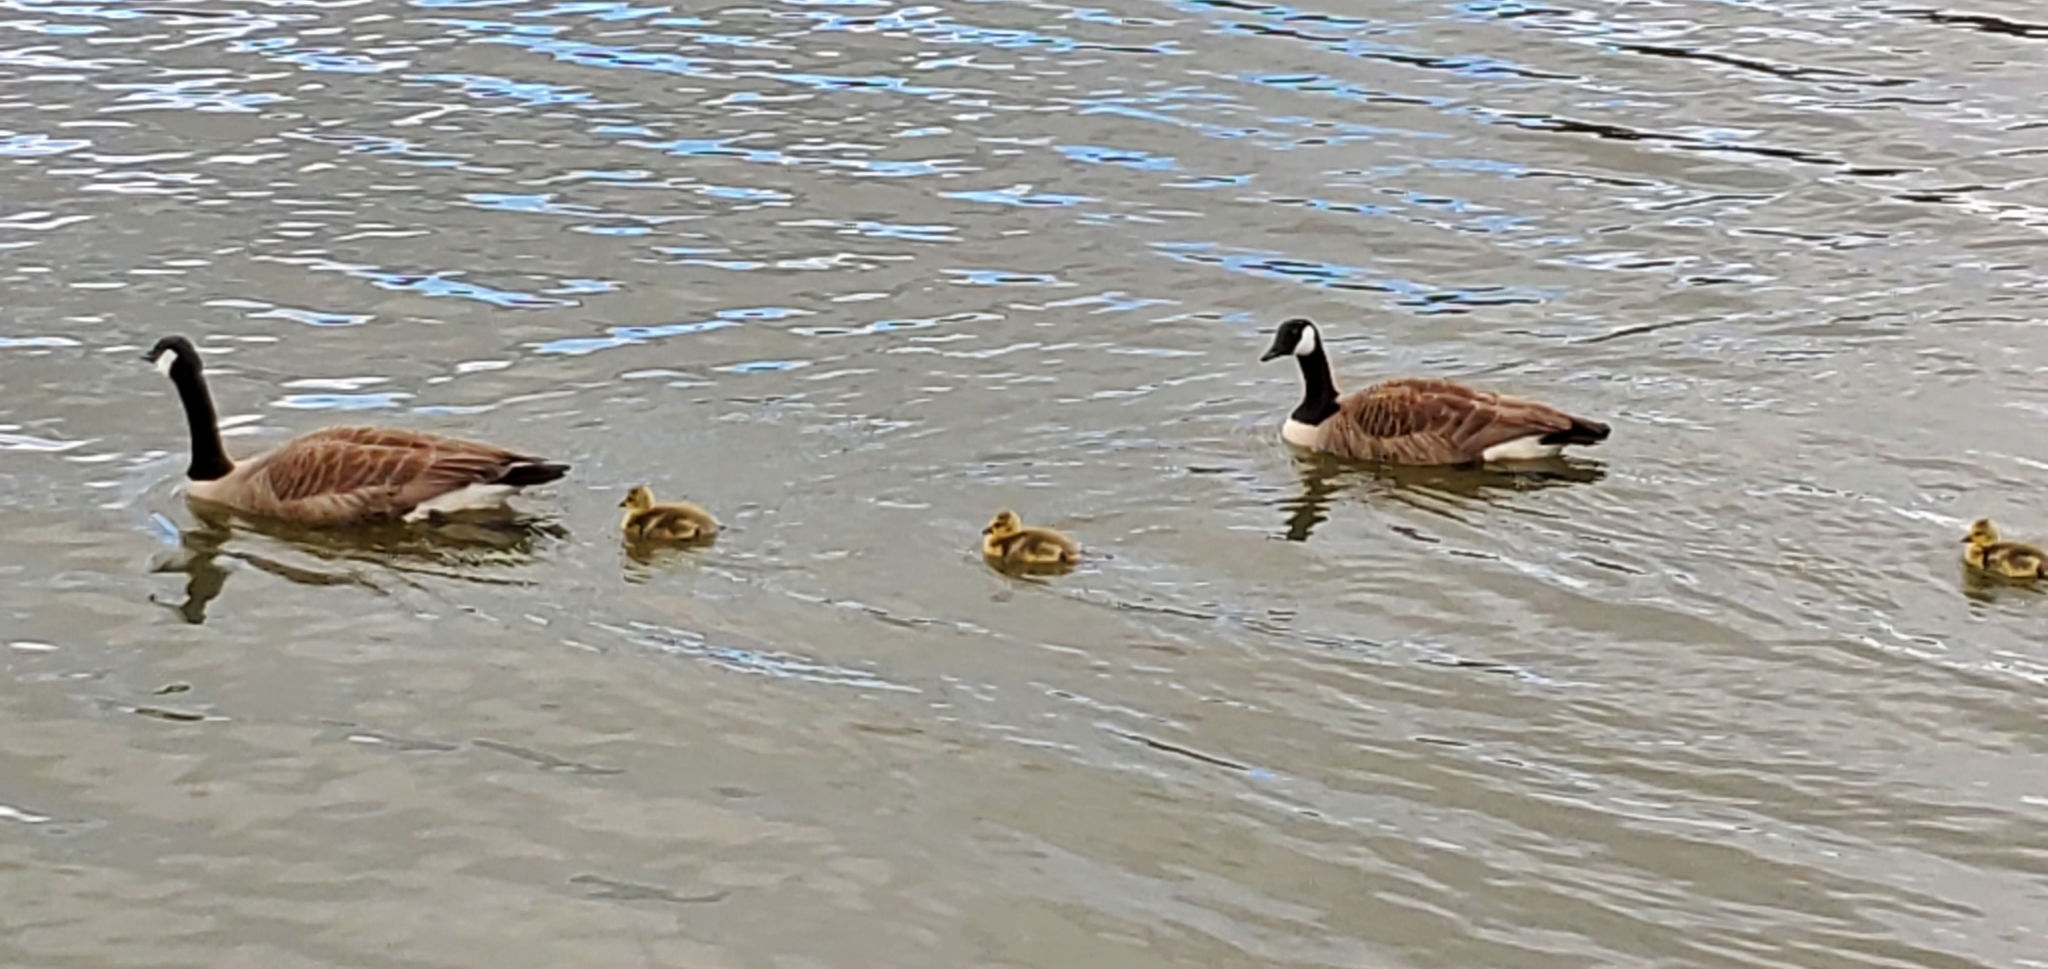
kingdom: Animalia
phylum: Chordata
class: Aves
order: Anseriformes
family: Anatidae
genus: Branta
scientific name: Branta canadensis
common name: Canada goose
